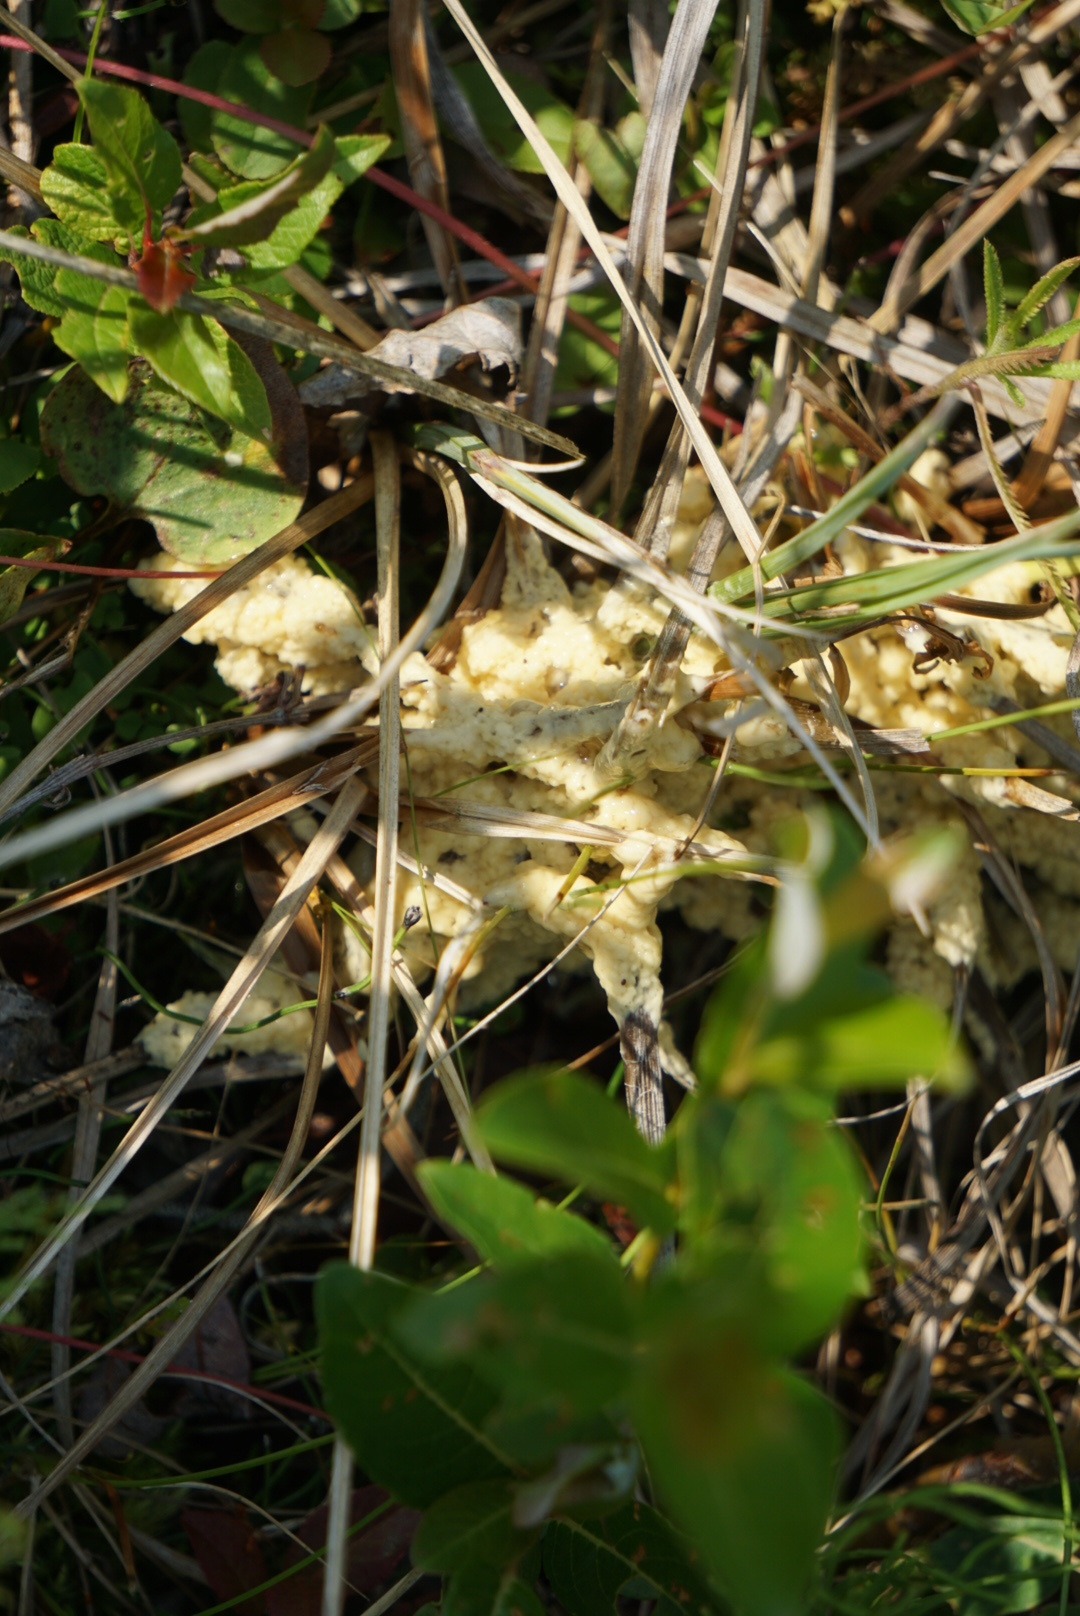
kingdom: Protozoa
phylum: Mycetozoa
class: Myxomycetes
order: Physarales
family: Physaraceae
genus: Fuligo
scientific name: Fuligo septica
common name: Dog vomit slime mold
